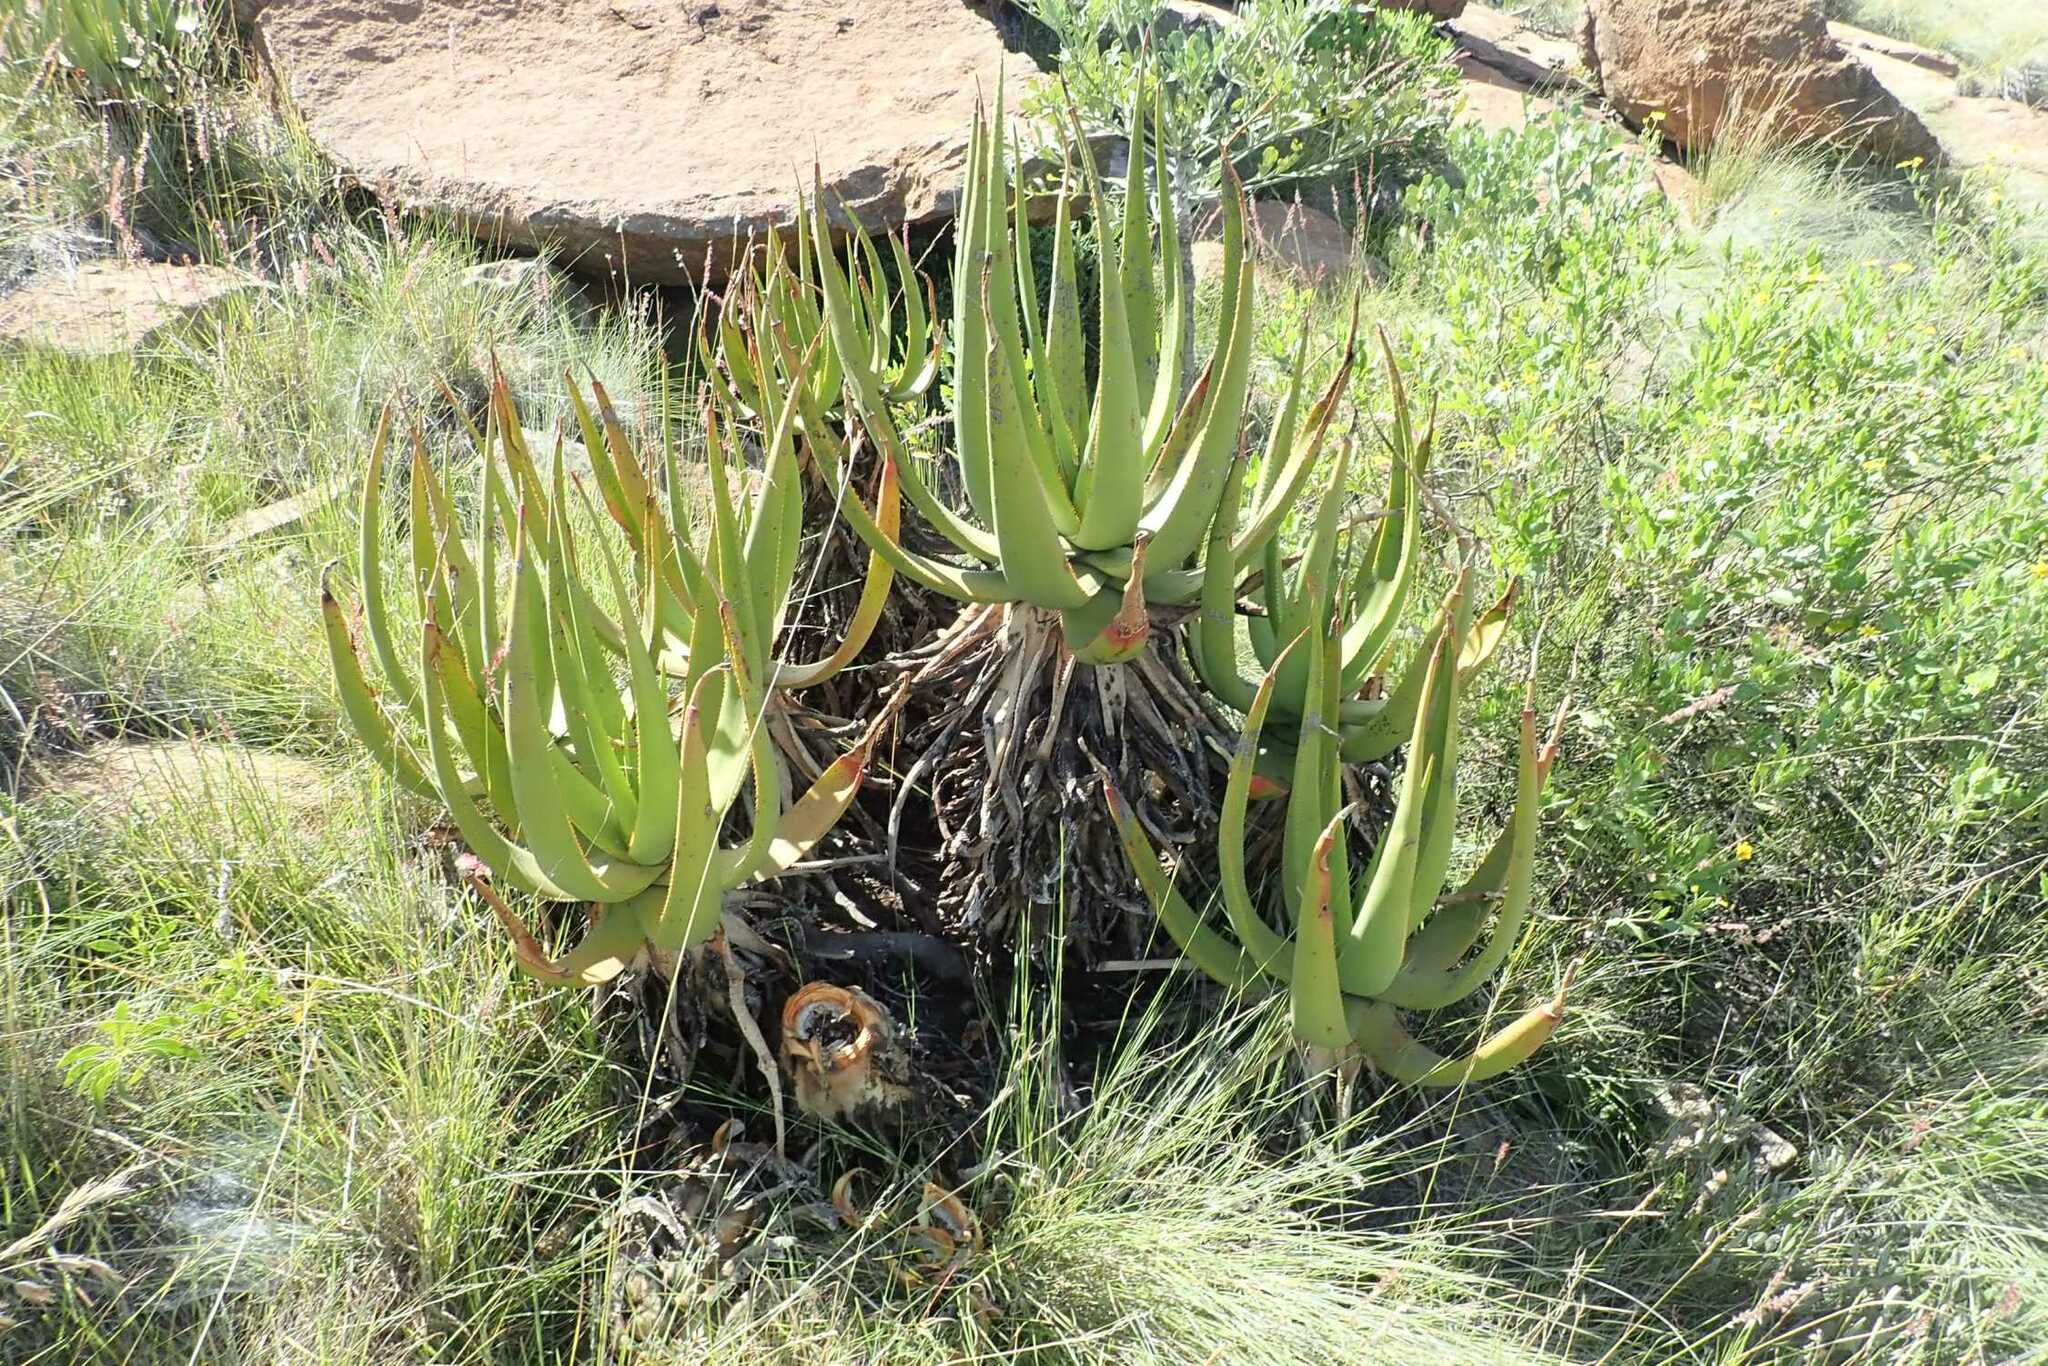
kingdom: Plantae
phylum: Tracheophyta
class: Liliopsida
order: Asparagales
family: Asphodelaceae
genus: Aloe
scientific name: Aloe barbara-jeppeae
